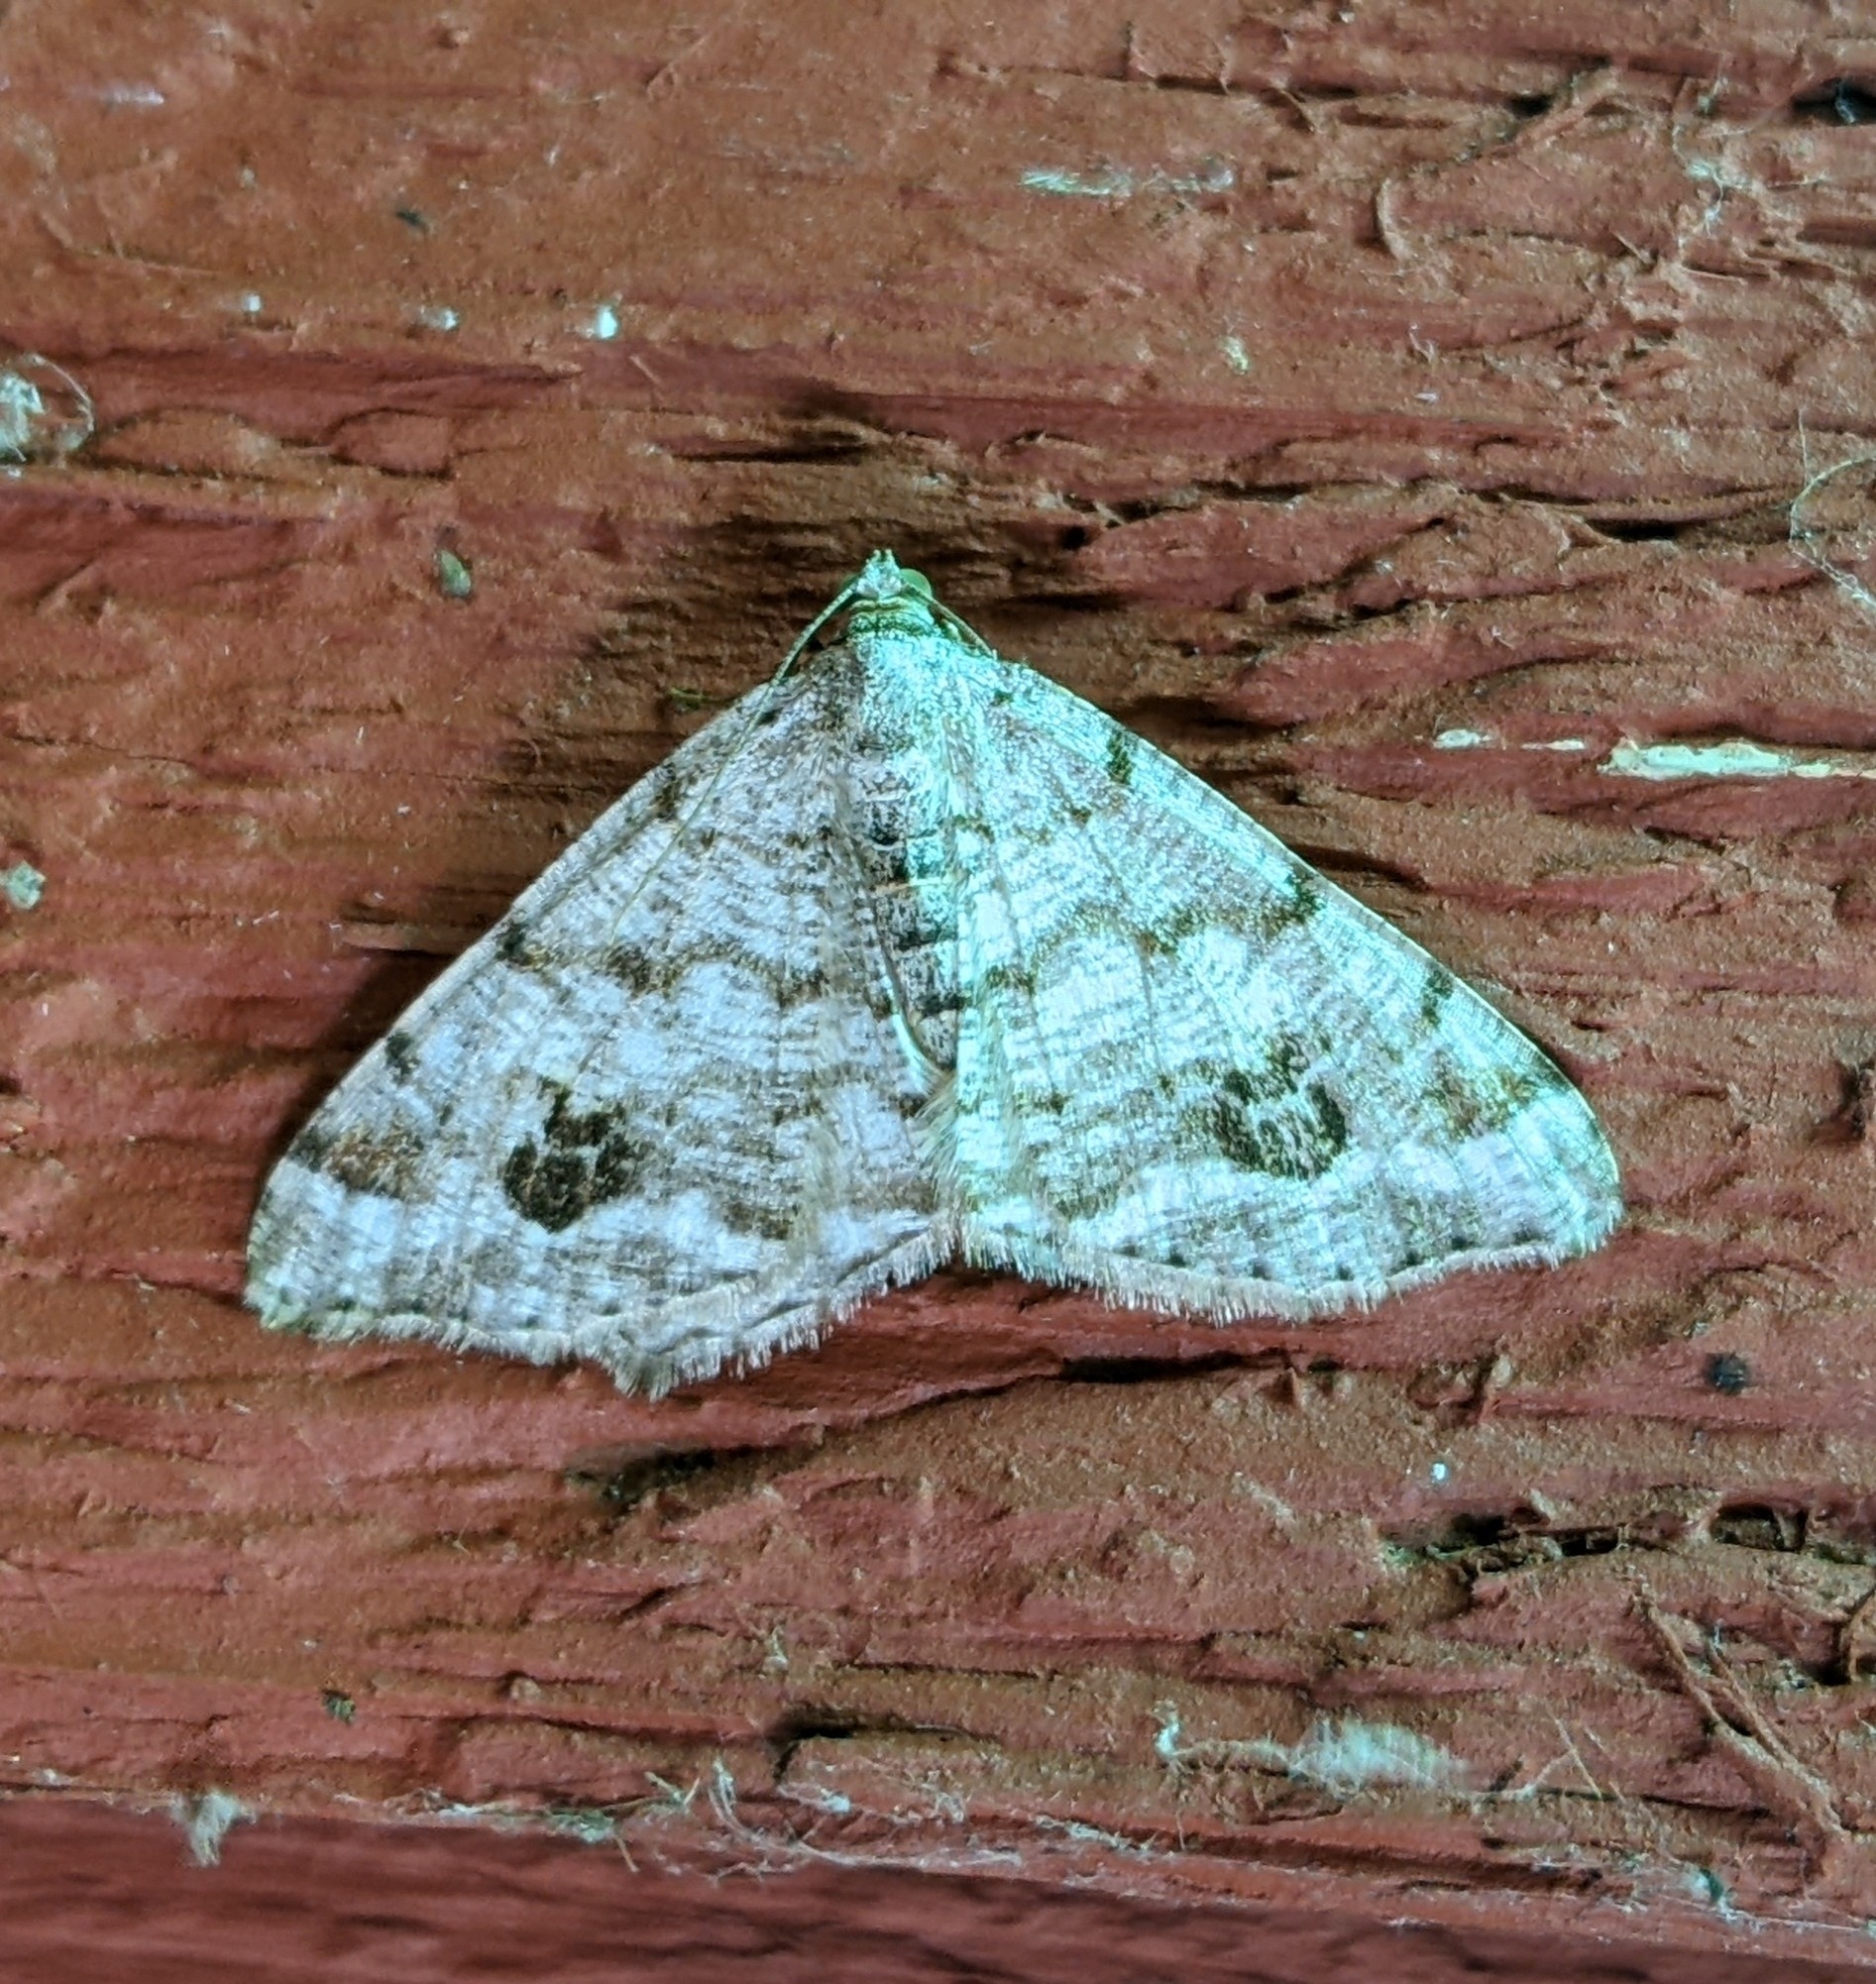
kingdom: Animalia
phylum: Arthropoda
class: Insecta
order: Lepidoptera
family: Geometridae
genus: Macaria
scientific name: Macaria signaria
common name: Dusky peacock
